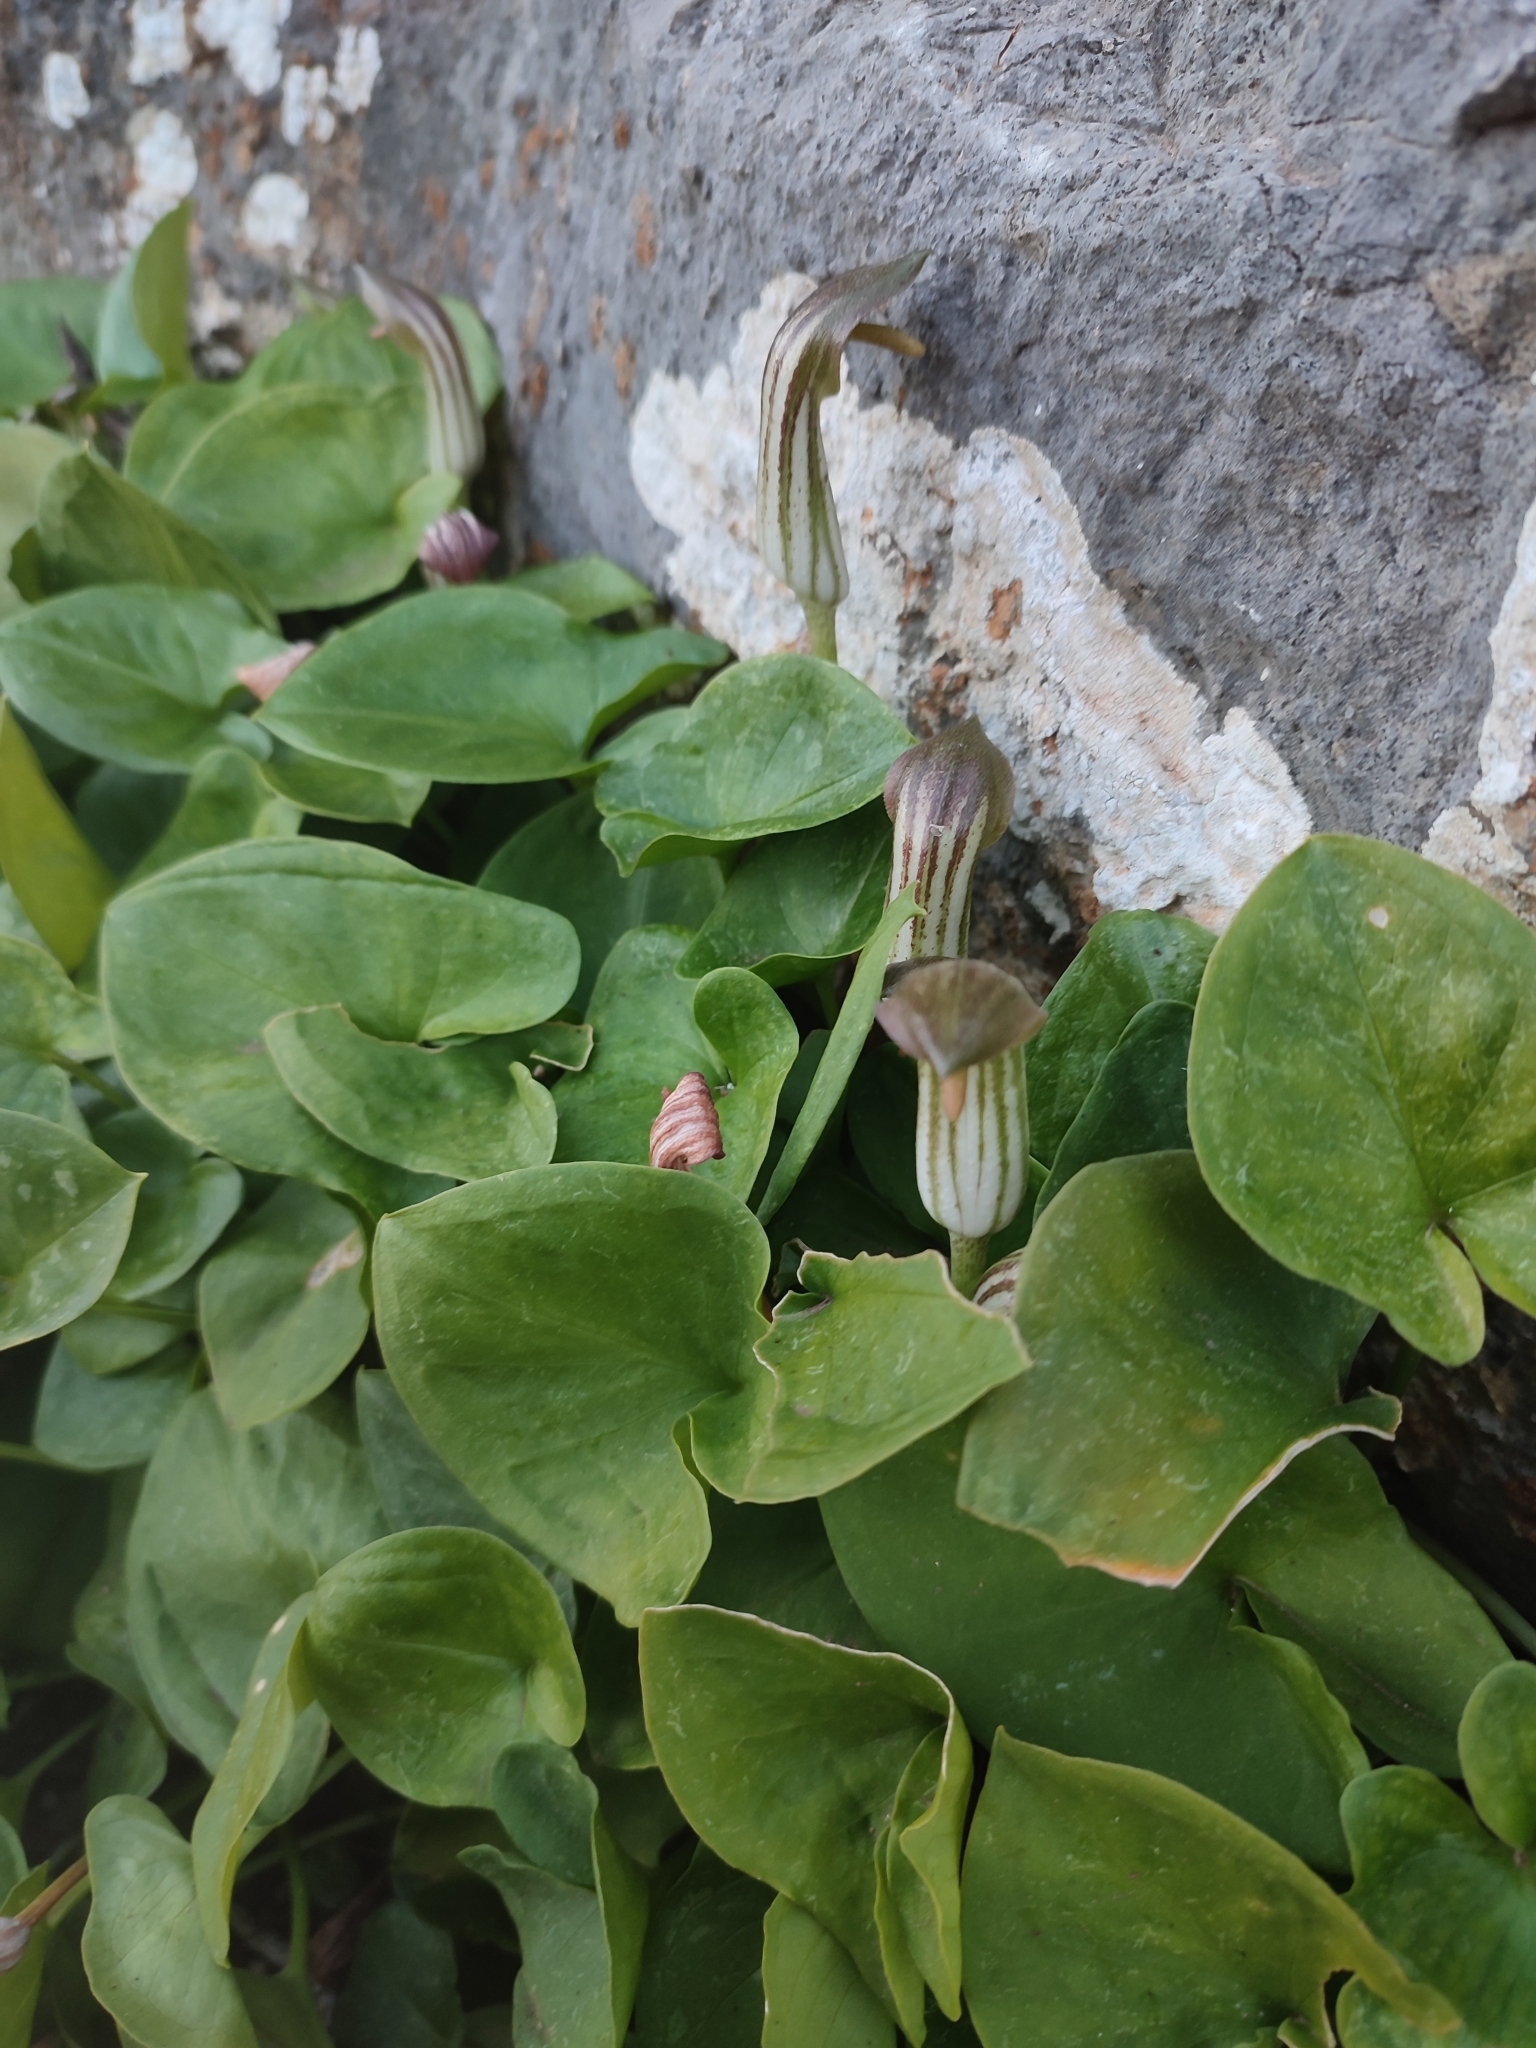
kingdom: Plantae
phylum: Tracheophyta
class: Liliopsida
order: Alismatales
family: Araceae
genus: Arisarum
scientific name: Arisarum vulgare
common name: Common arisarum
